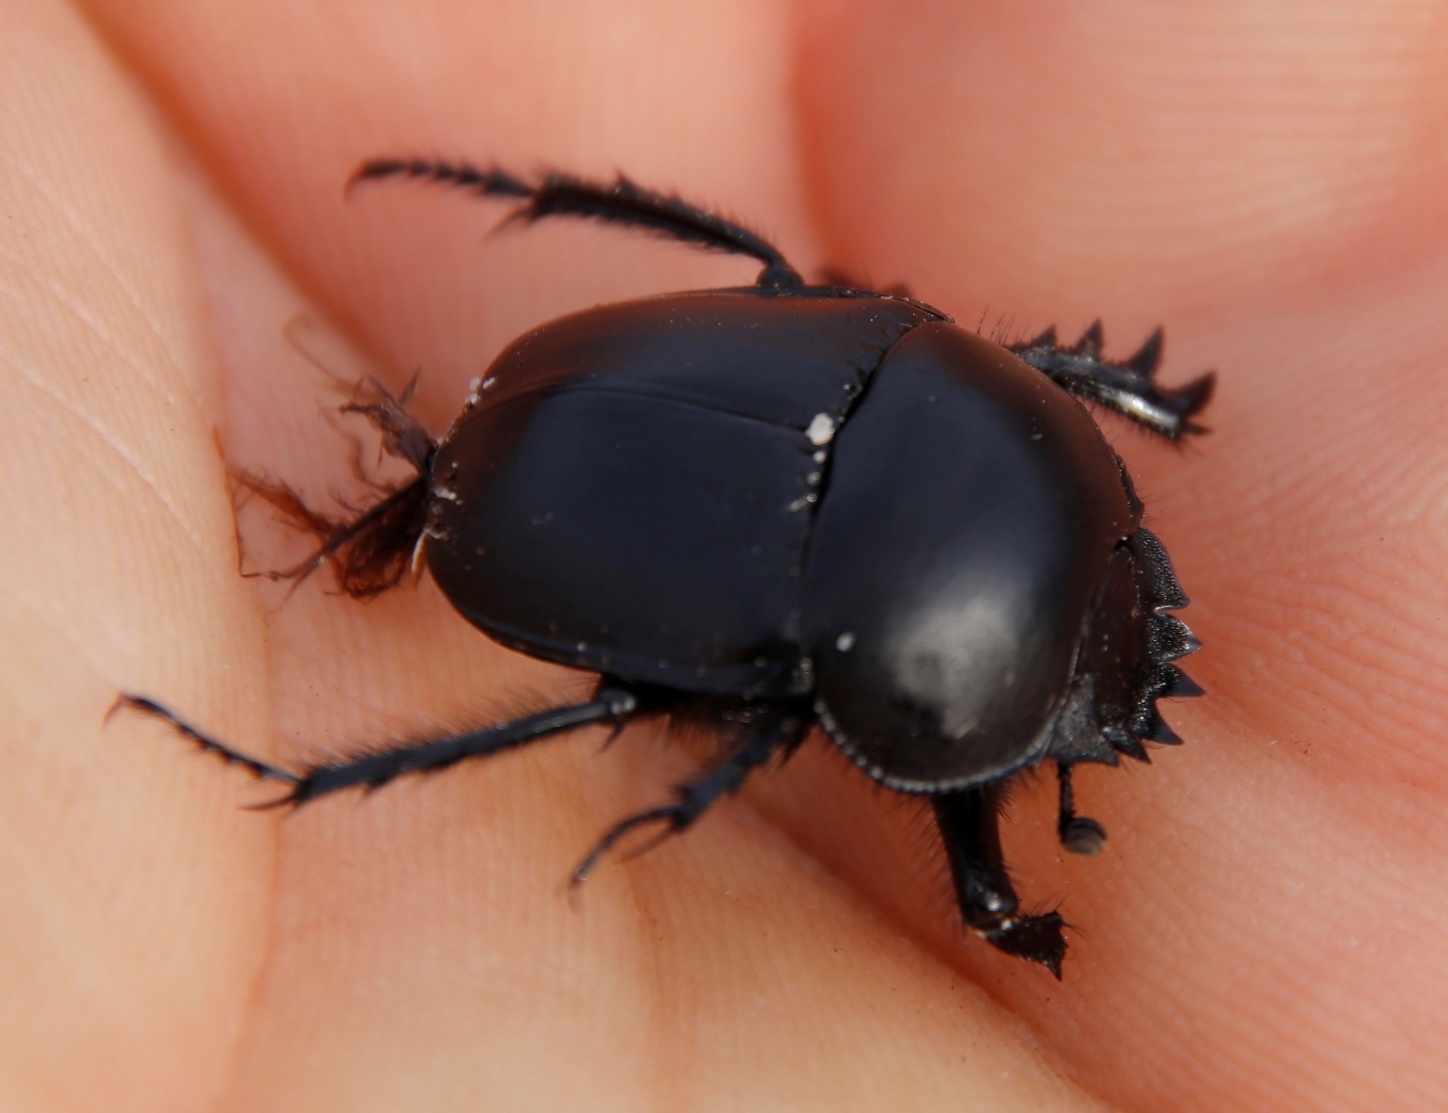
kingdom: Animalia
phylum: Arthropoda
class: Insecta
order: Coleoptera
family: Scarabaeidae
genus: Scarabaeus
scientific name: Scarabaeus convexus
